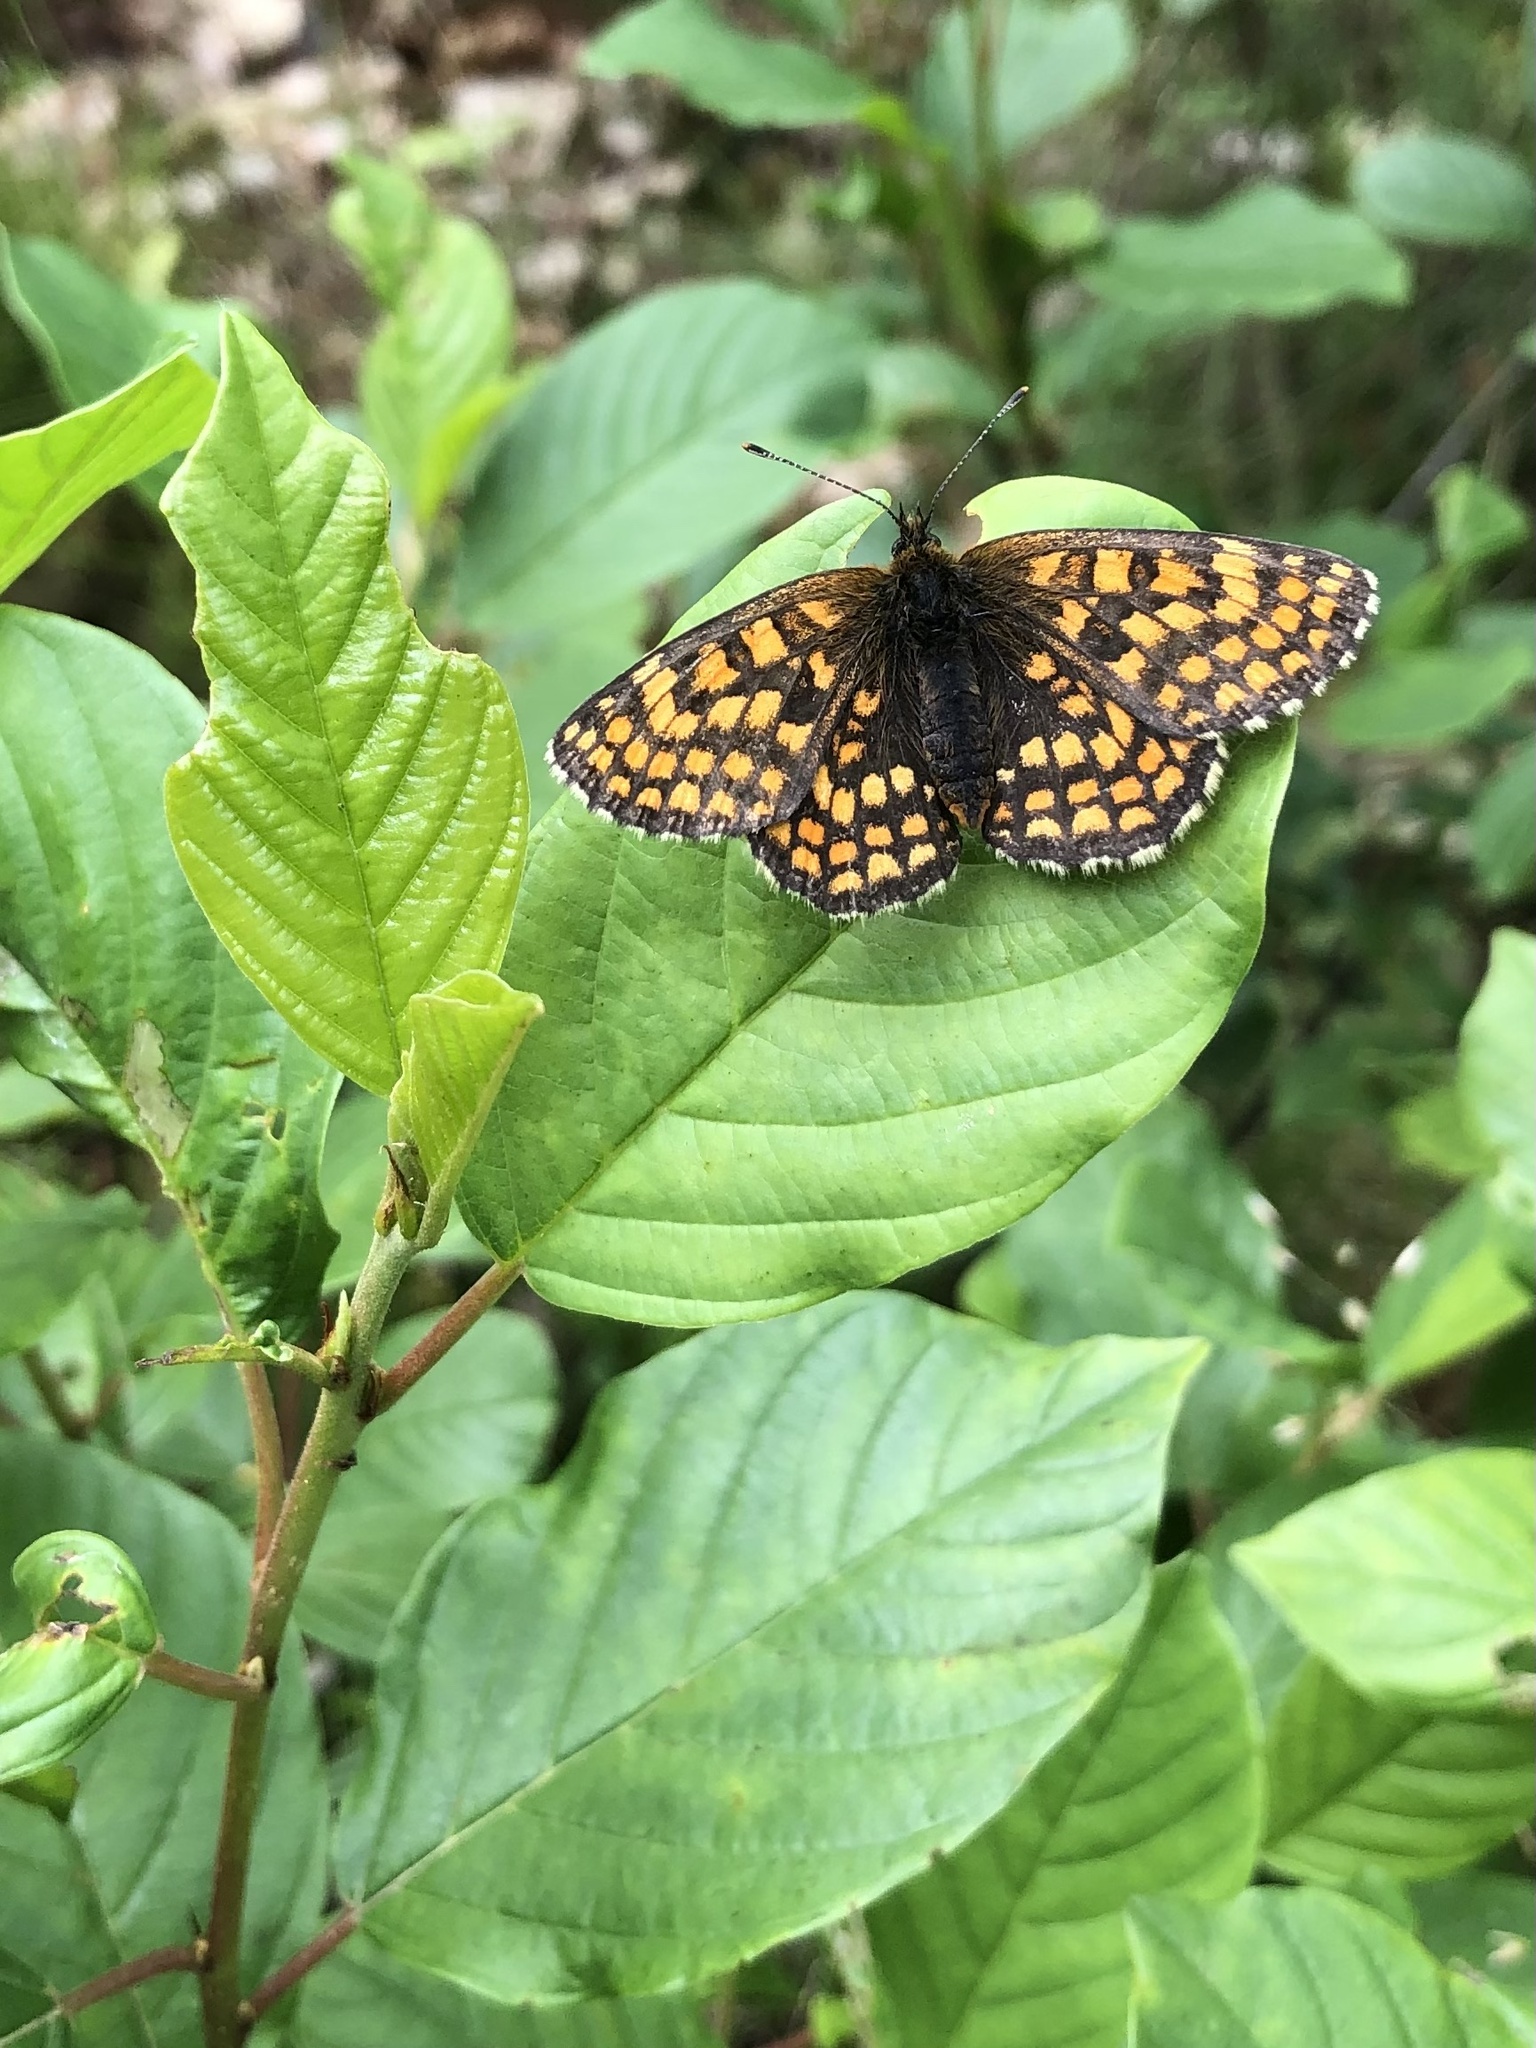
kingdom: Animalia
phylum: Arthropoda
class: Insecta
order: Lepidoptera
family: Nymphalidae
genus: Melitaea
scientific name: Melitaea athalia
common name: Heath fritillary
